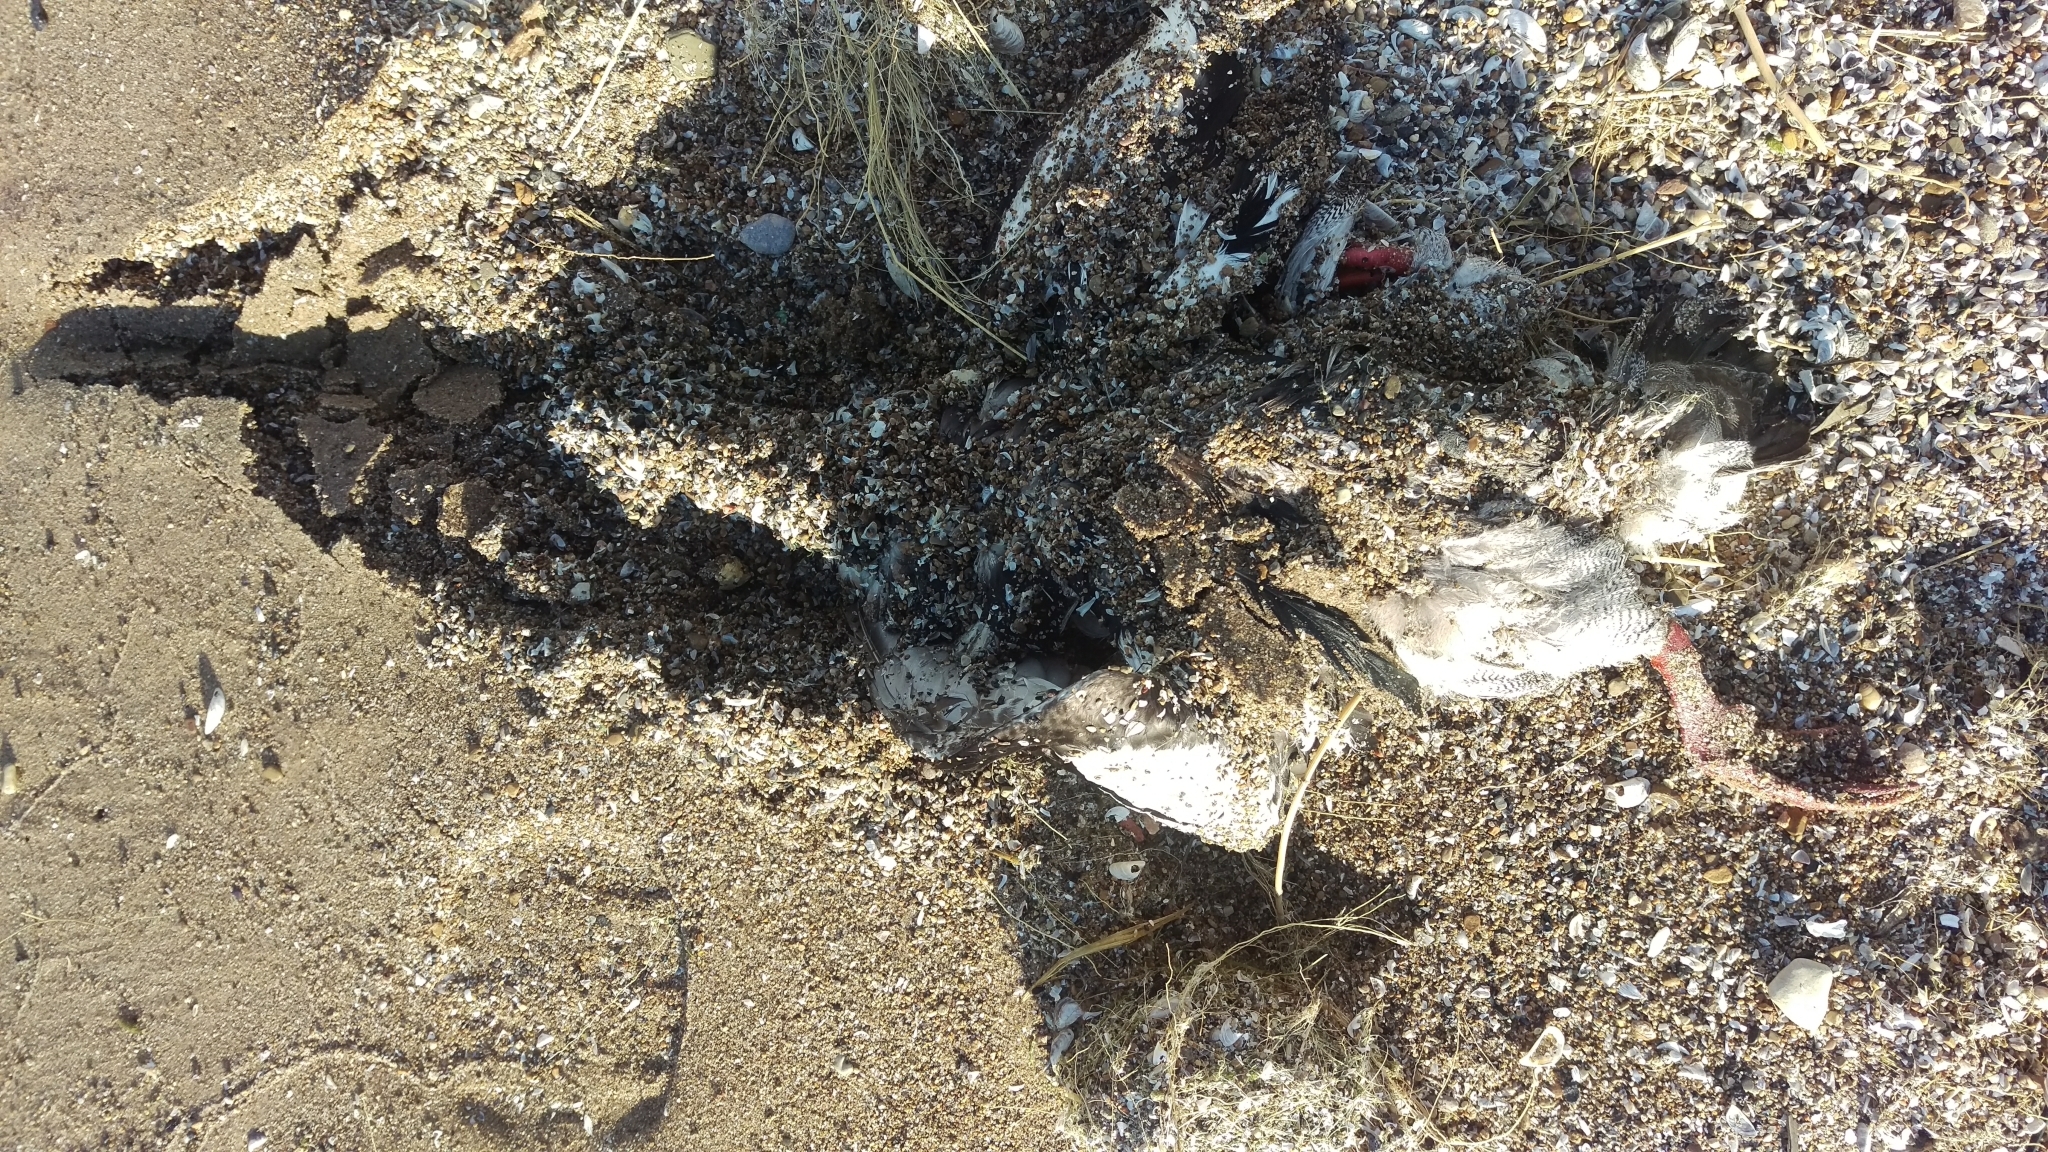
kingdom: Animalia
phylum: Chordata
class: Aves
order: Anseriformes
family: Anatidae
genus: Mergus
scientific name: Mergus serrator
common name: Red-breasted merganser
